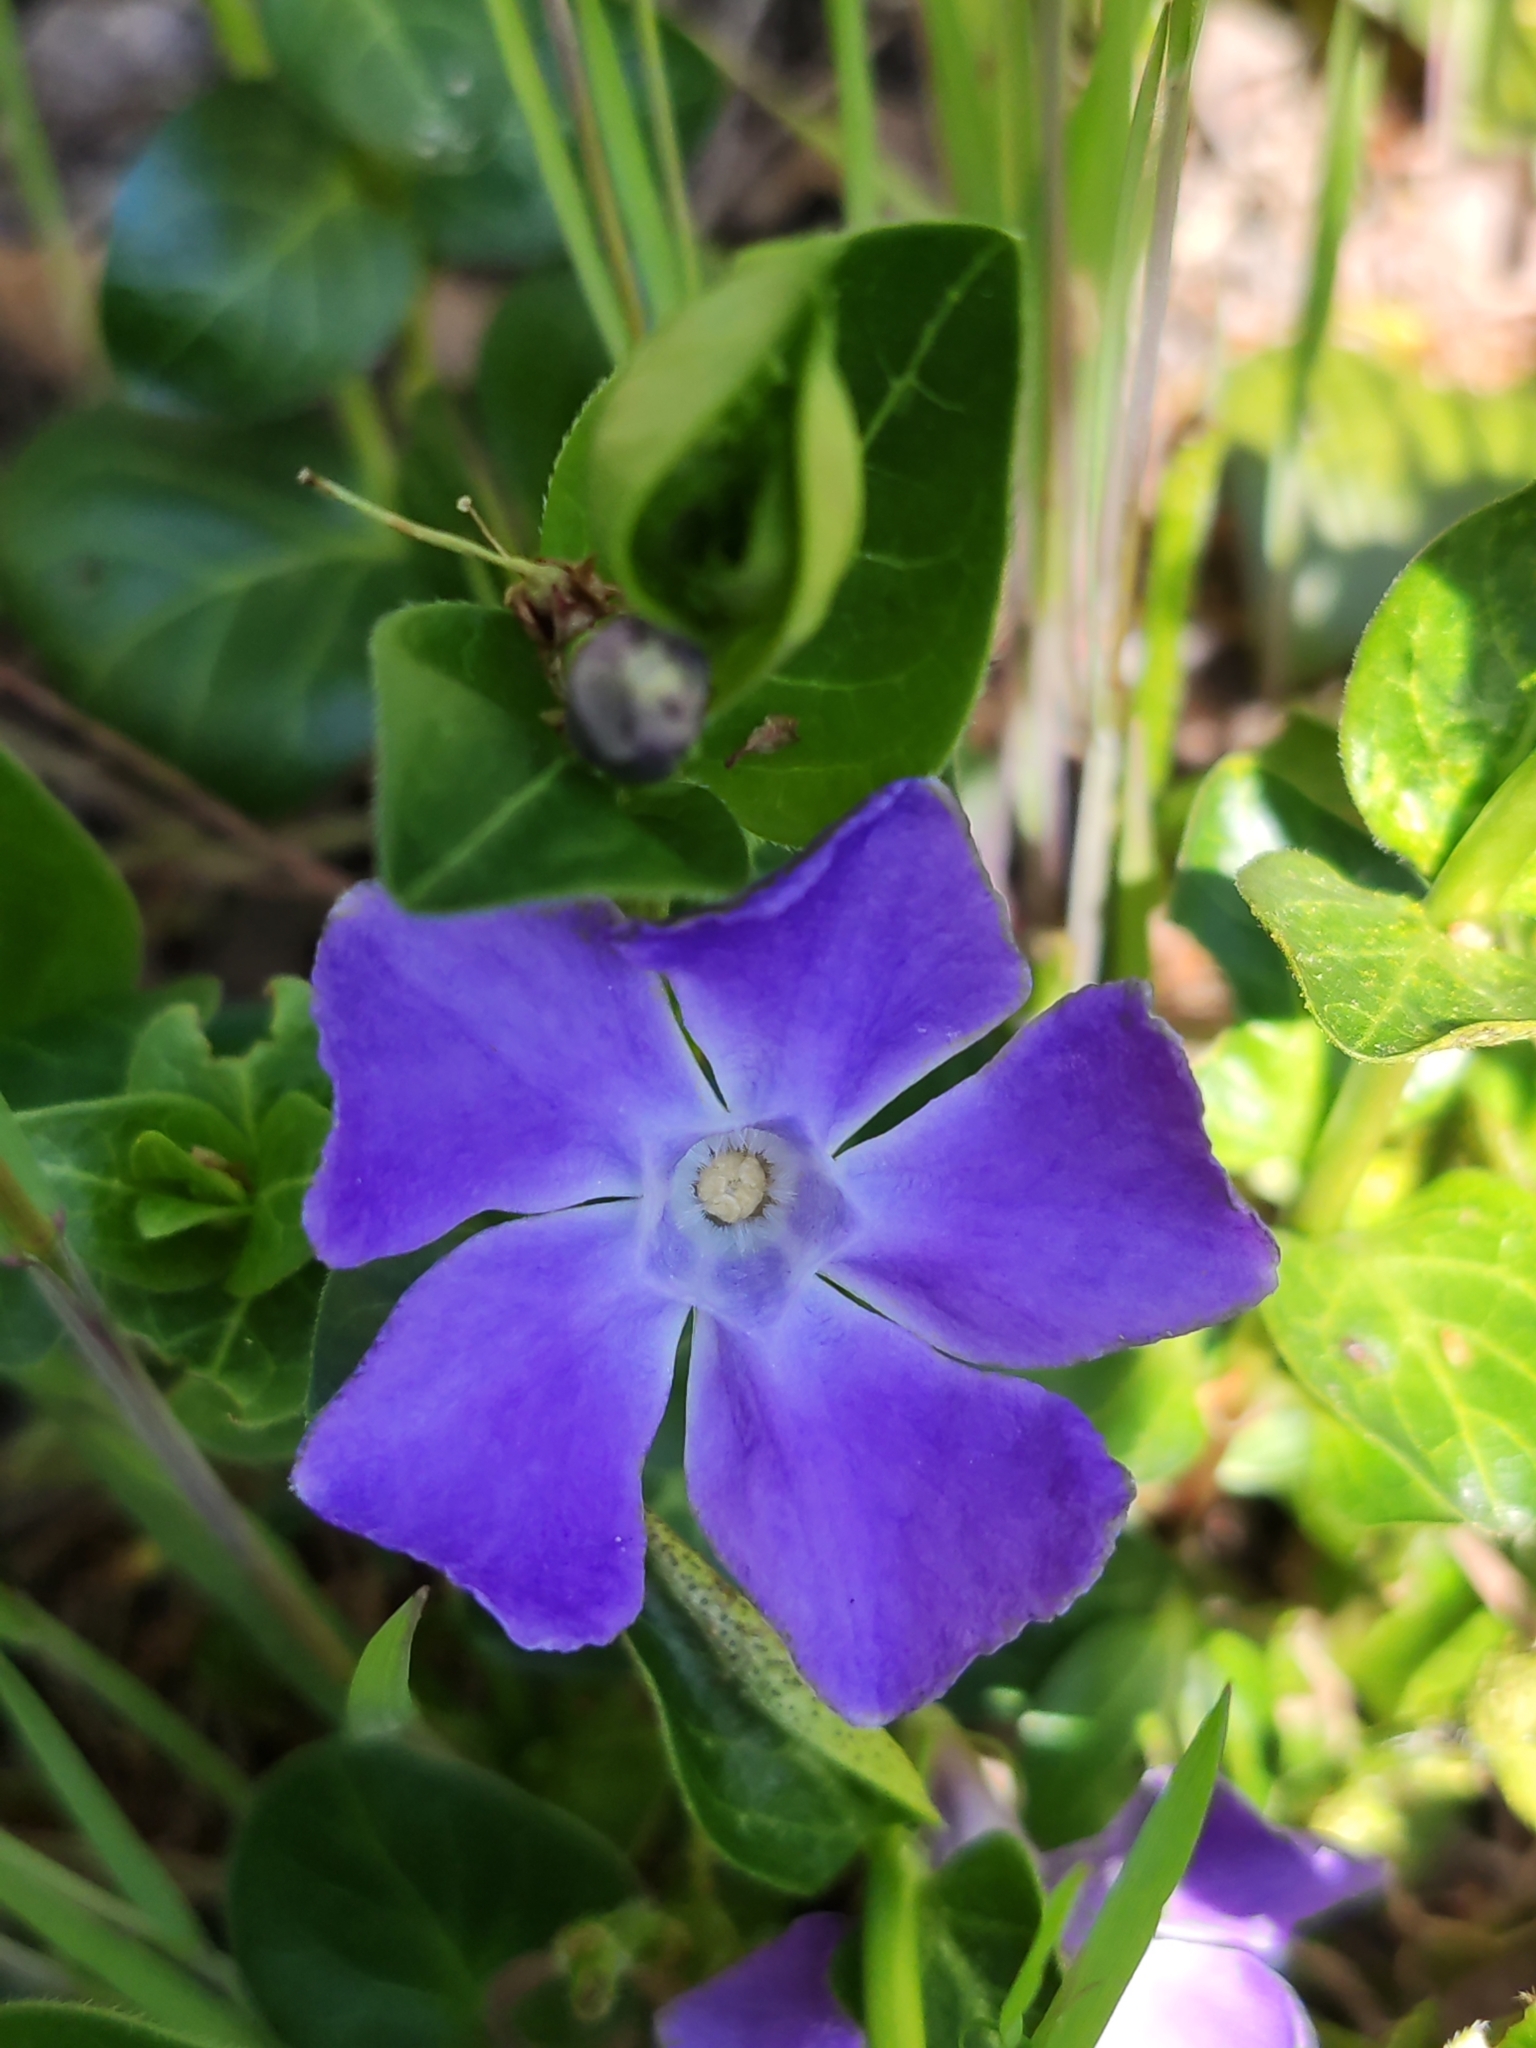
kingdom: Plantae
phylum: Tracheophyta
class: Magnoliopsida
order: Gentianales
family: Apocynaceae
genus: Vinca
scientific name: Vinca major
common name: Greater periwinkle
